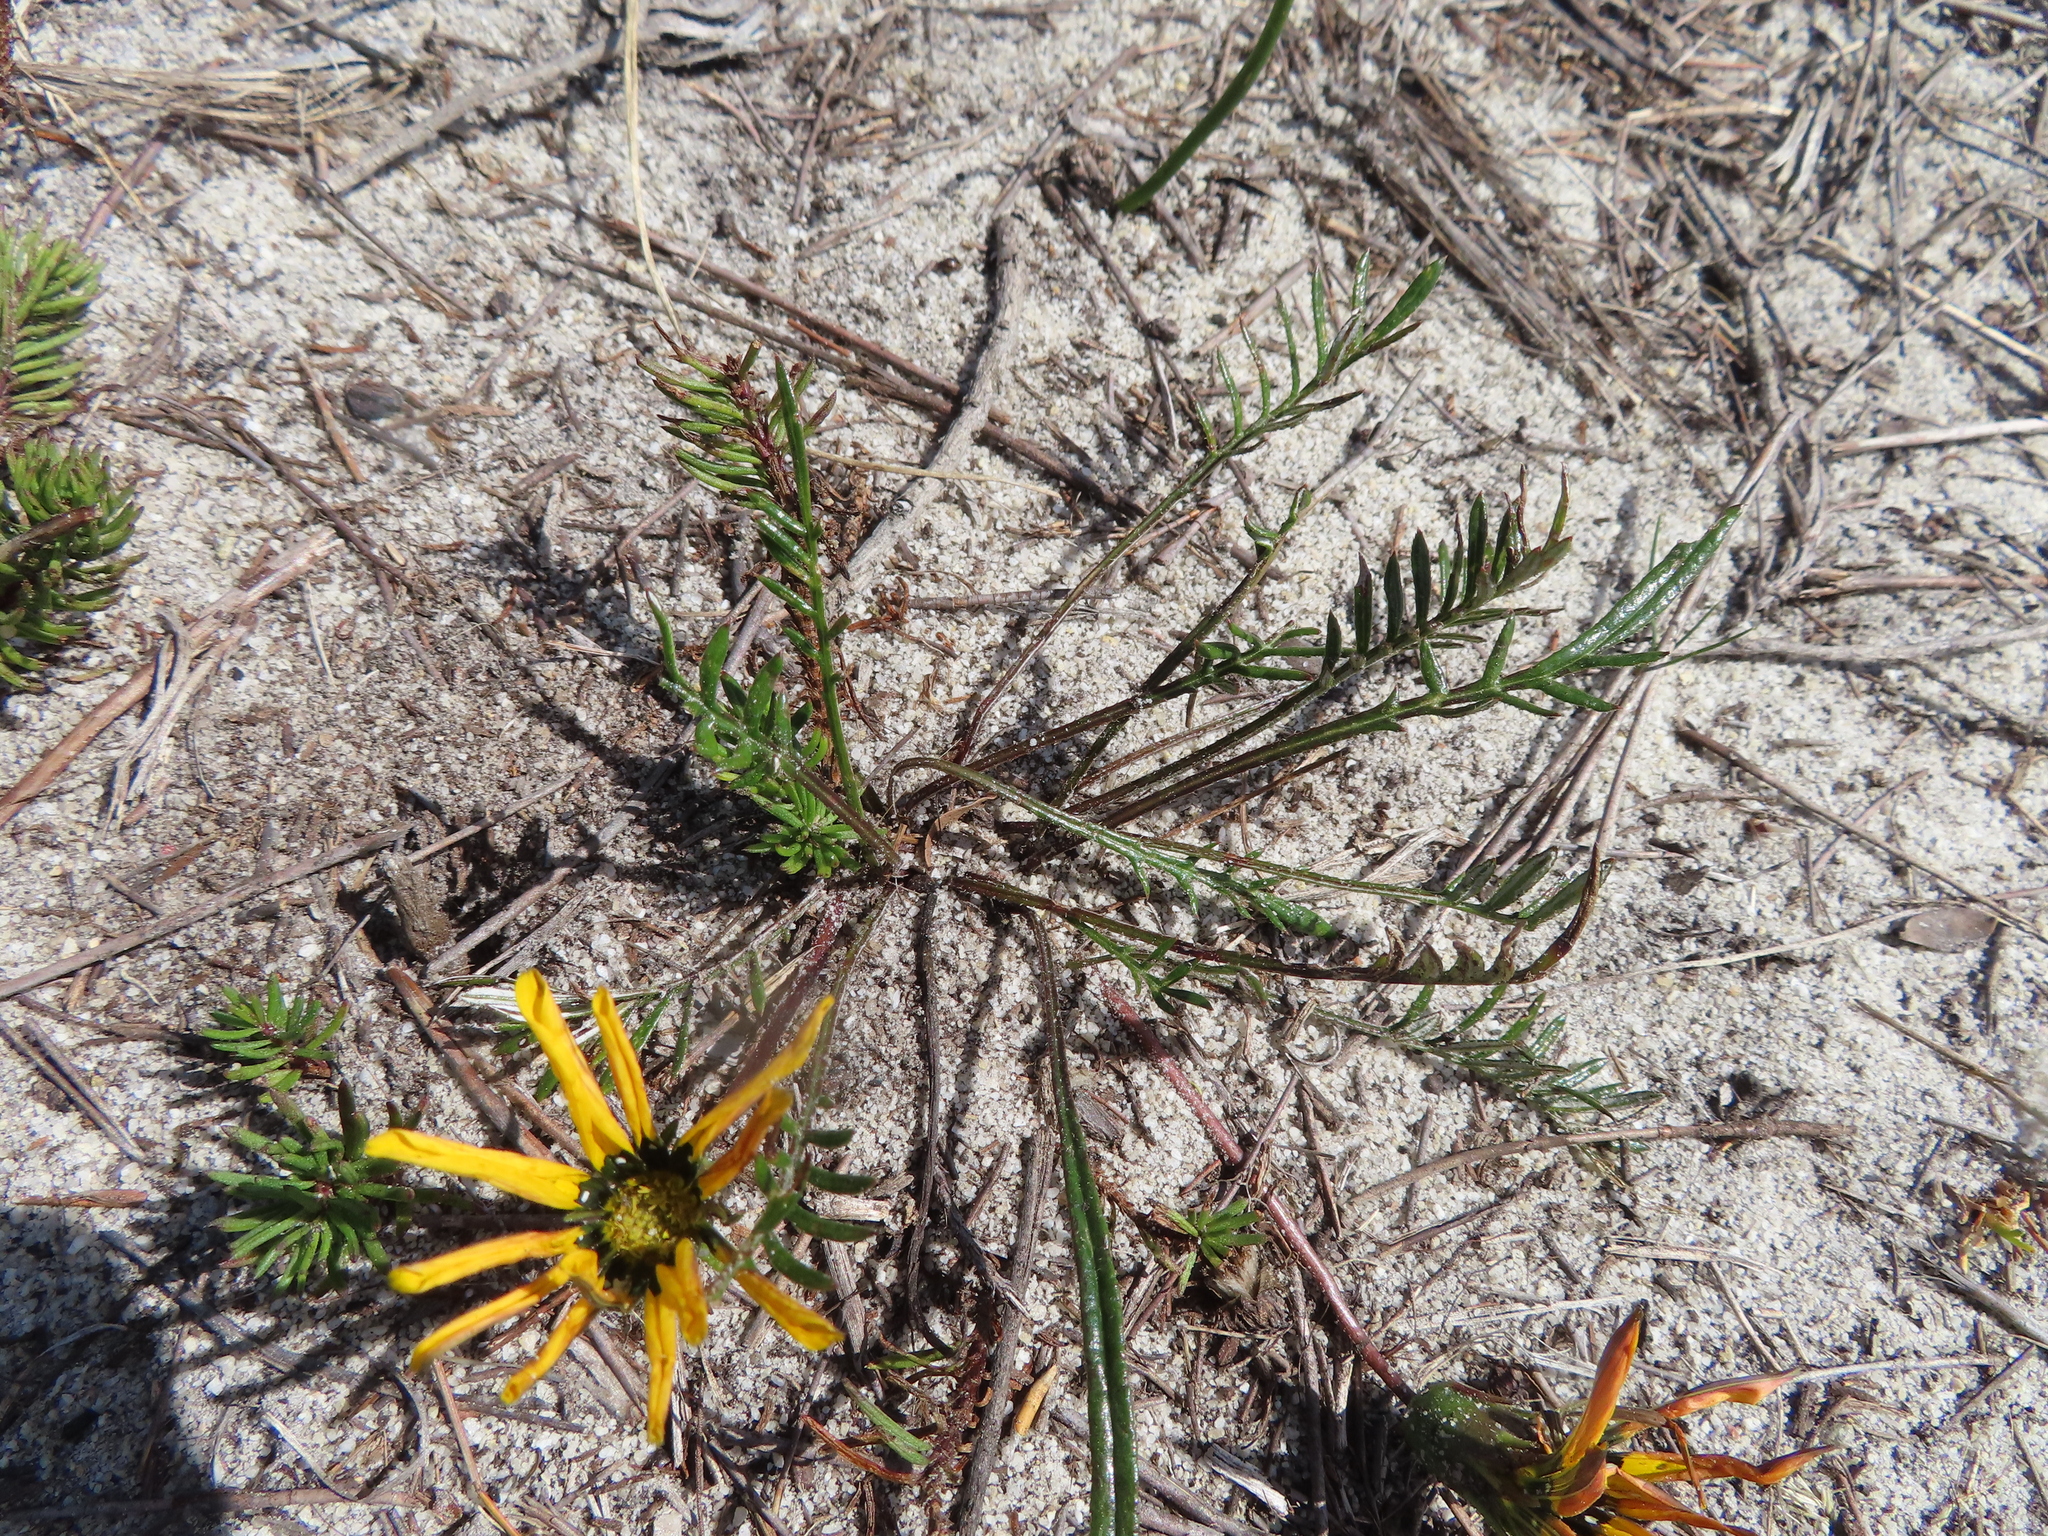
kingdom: Plantae
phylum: Tracheophyta
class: Magnoliopsida
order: Asterales
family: Asteraceae
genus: Gazania
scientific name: Gazania pectinata
